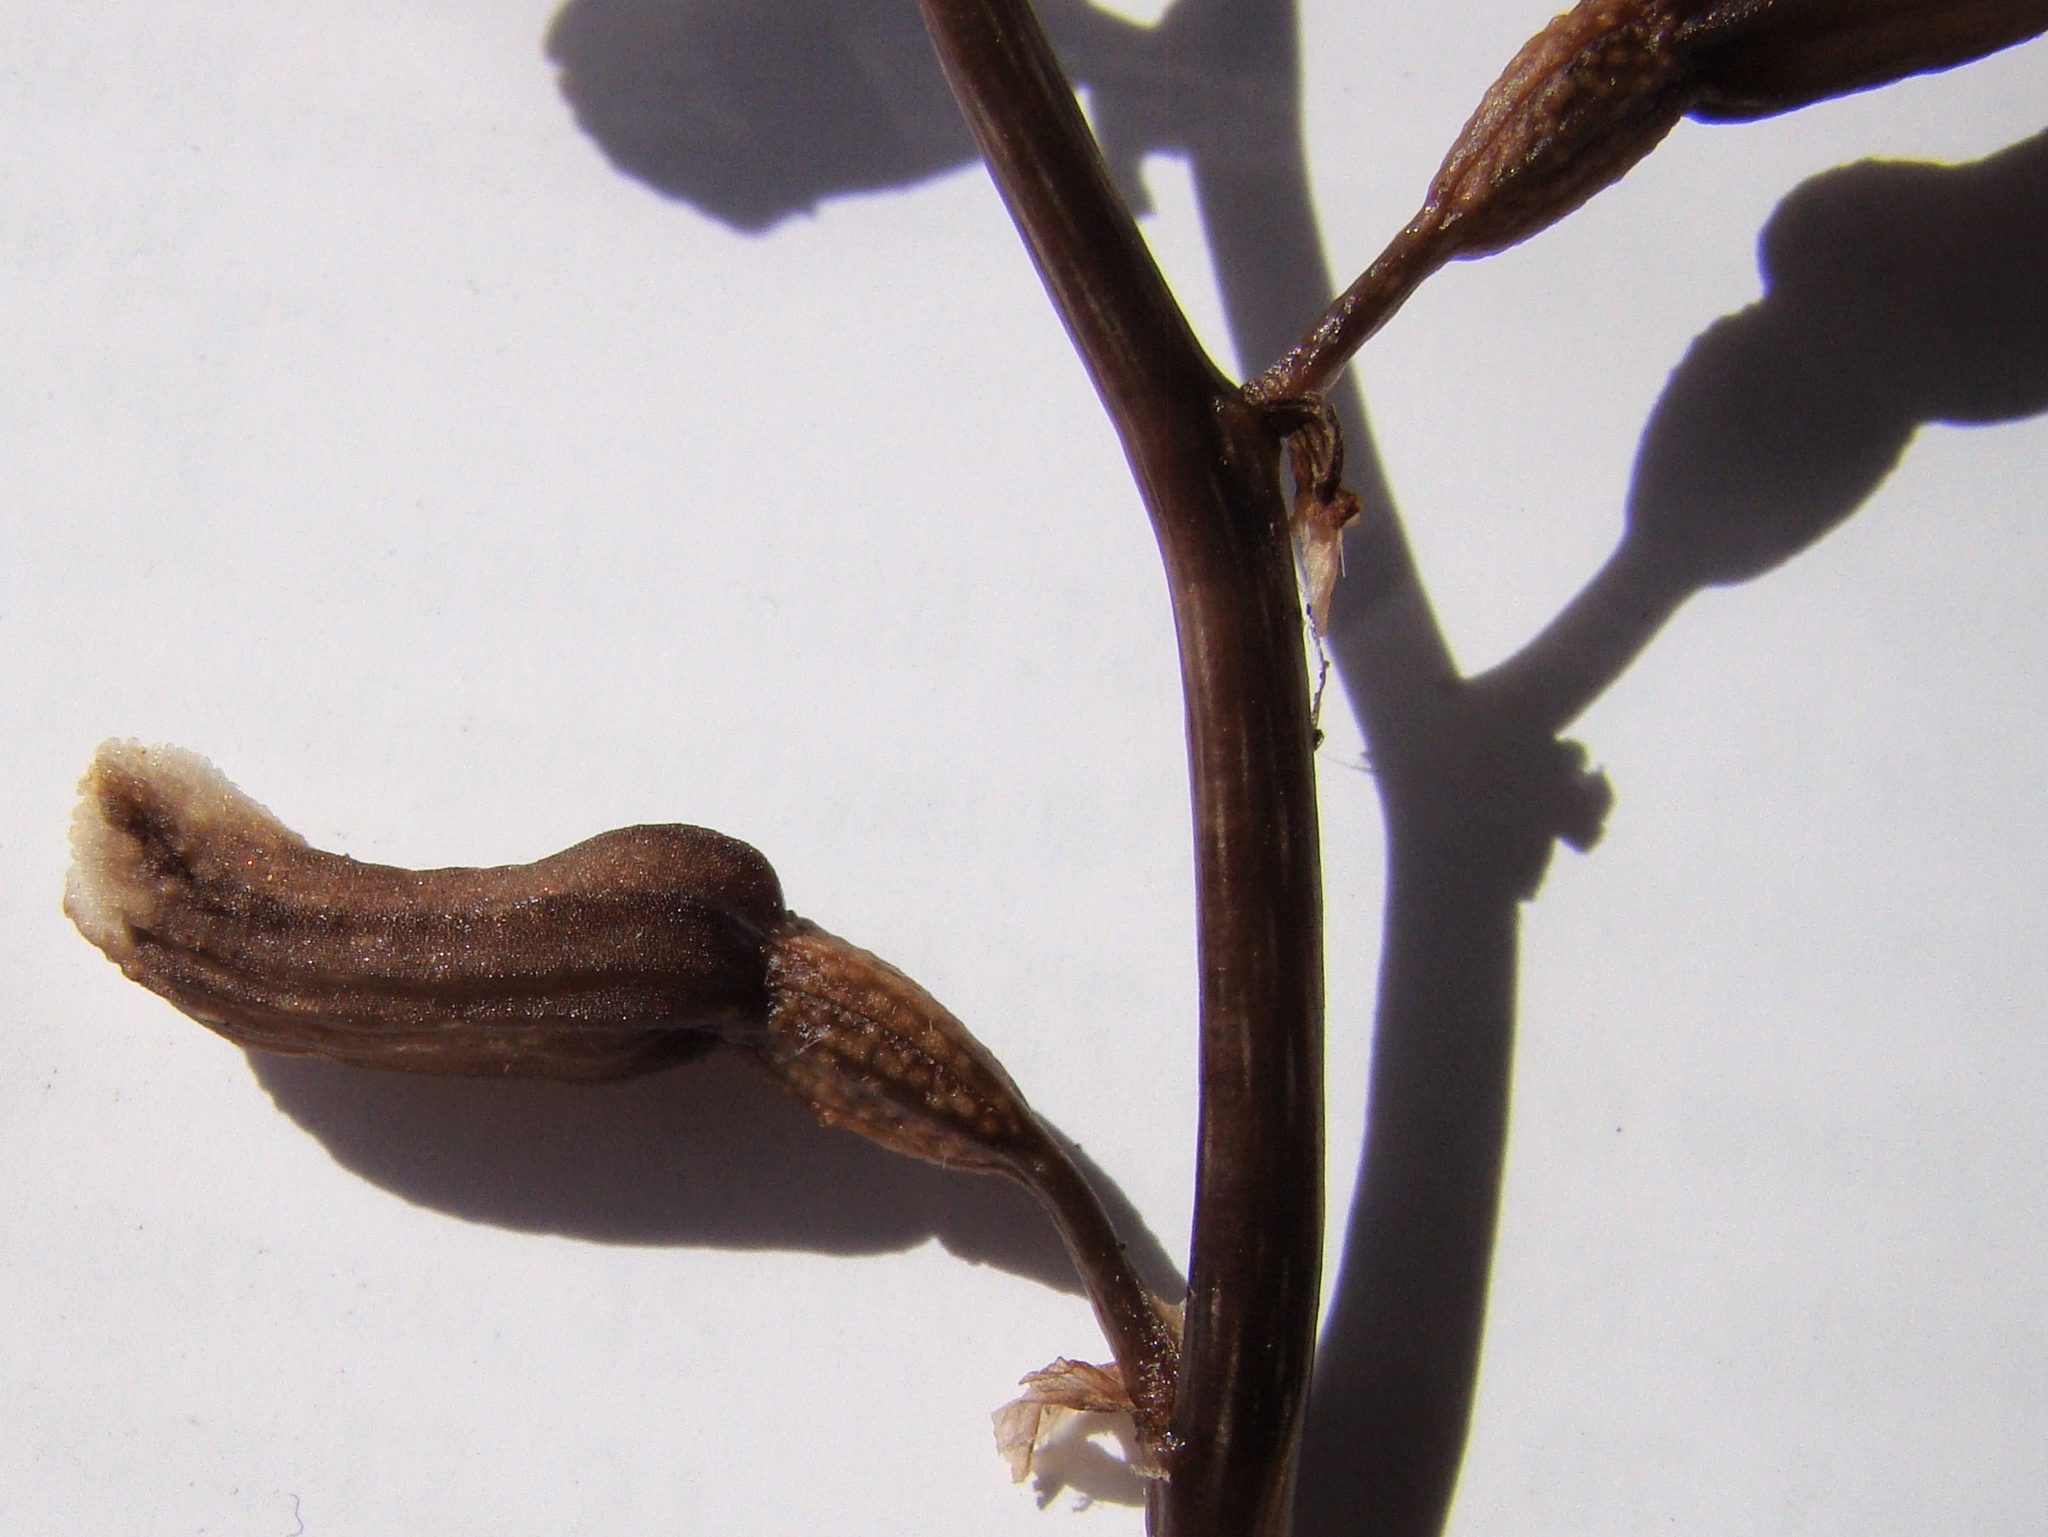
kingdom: Plantae
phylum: Tracheophyta
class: Liliopsida
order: Asparagales
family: Orchidaceae
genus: Gastrodia
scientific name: Gastrodia minor
